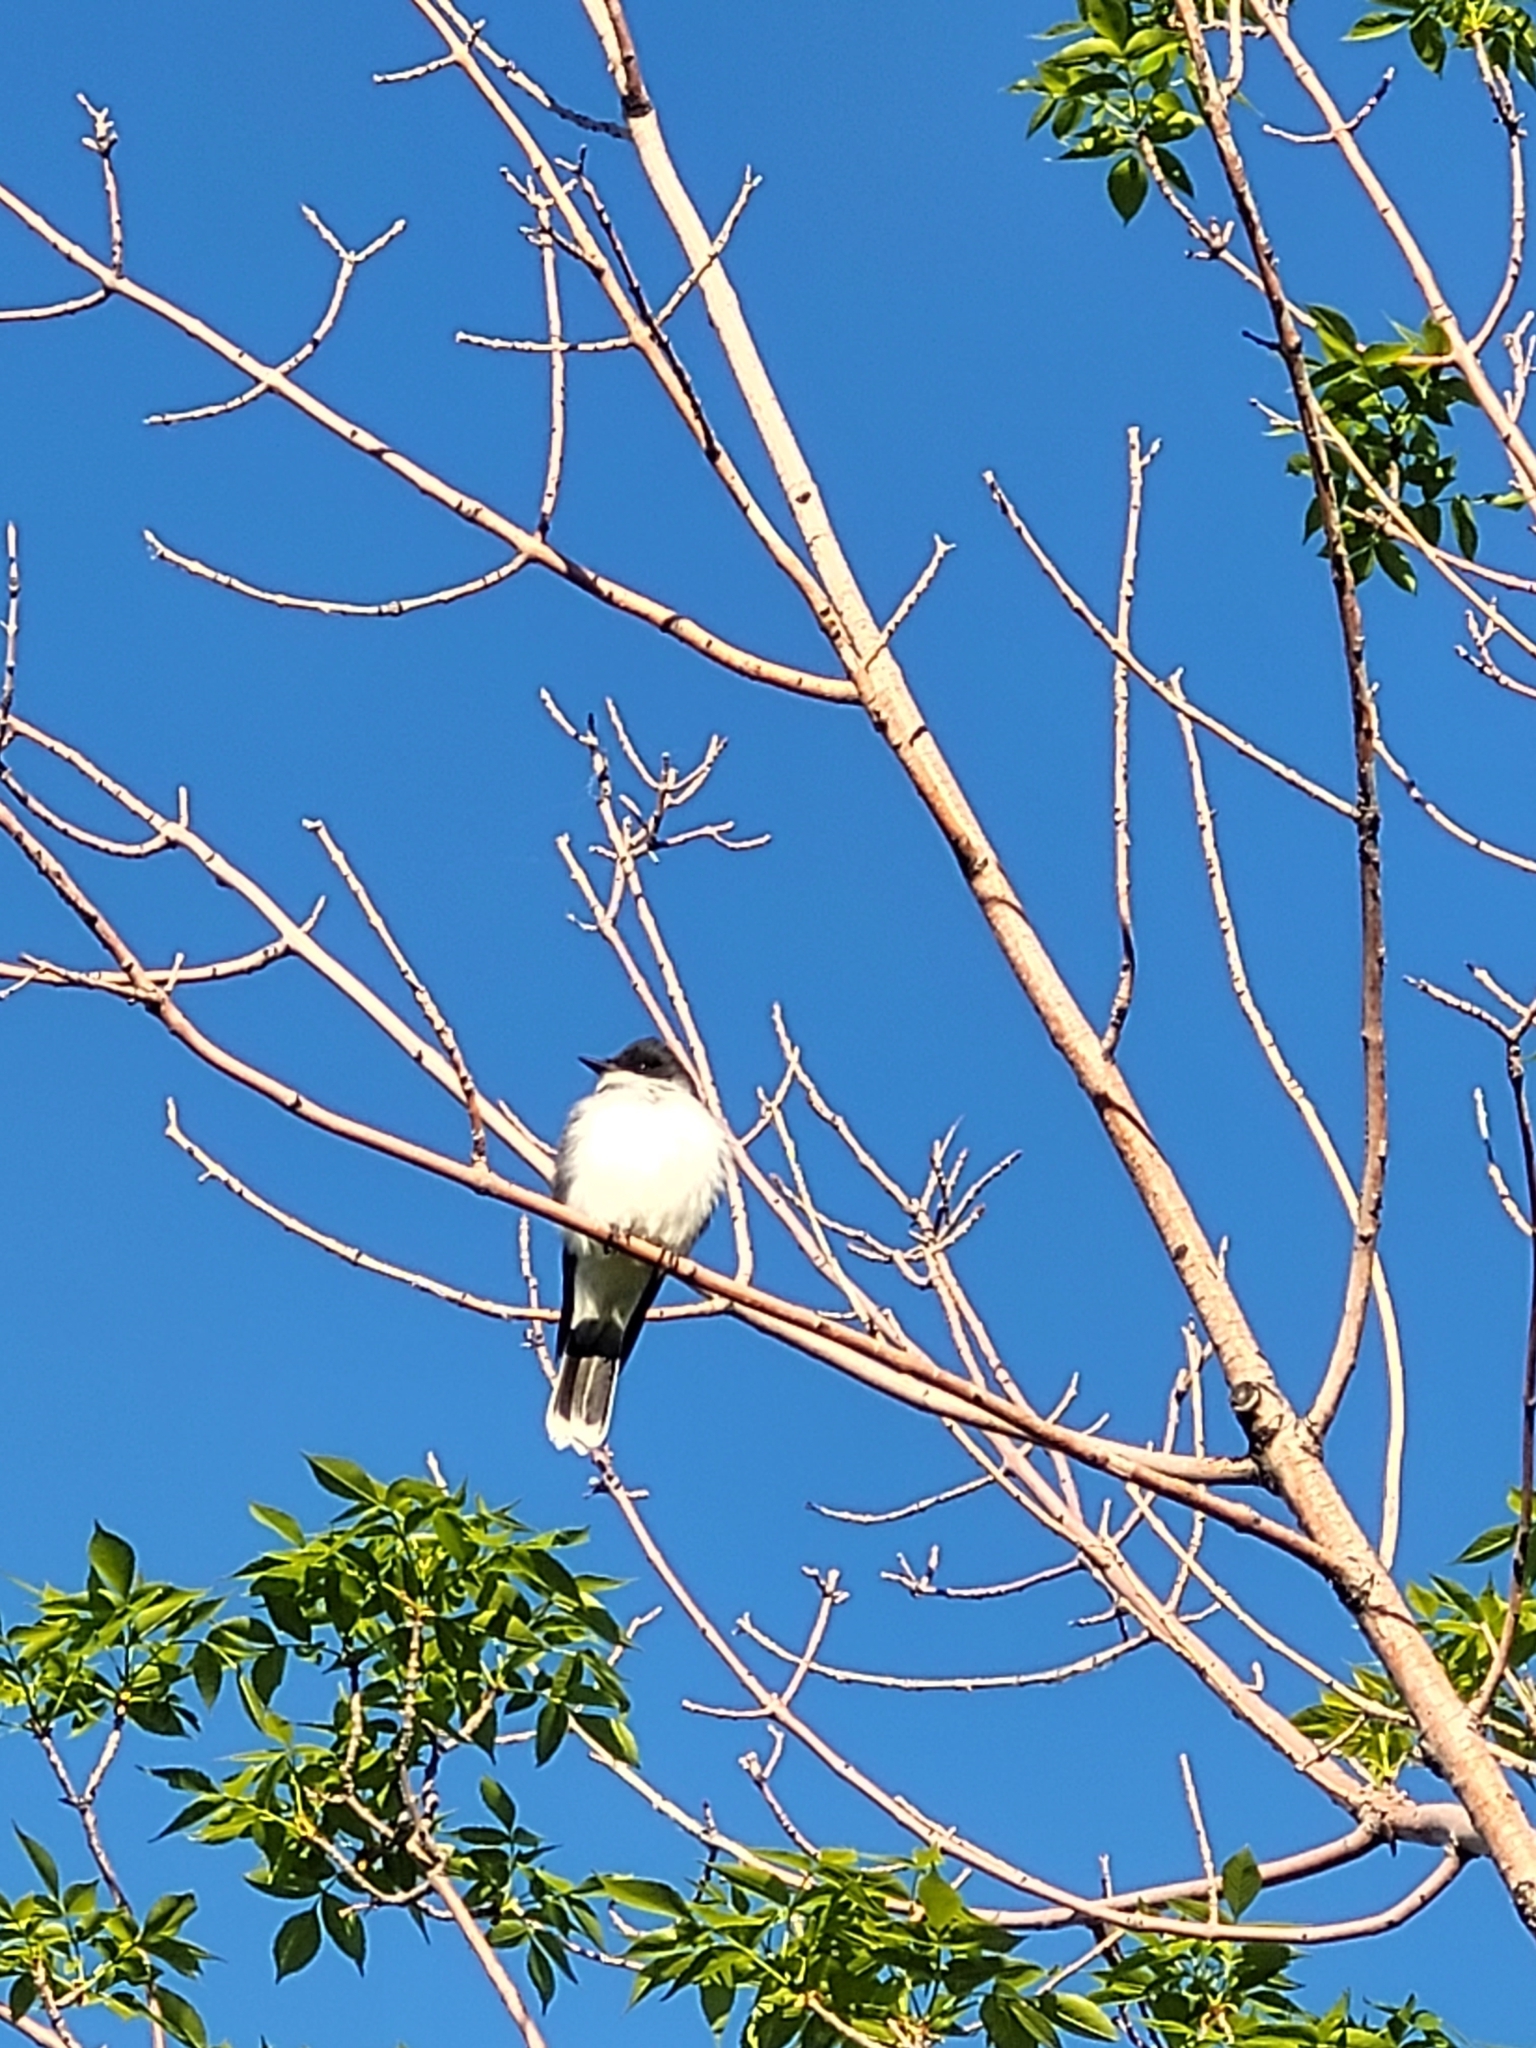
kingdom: Animalia
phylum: Chordata
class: Aves
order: Passeriformes
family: Tyrannidae
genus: Tyrannus
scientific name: Tyrannus tyrannus
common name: Eastern kingbird
